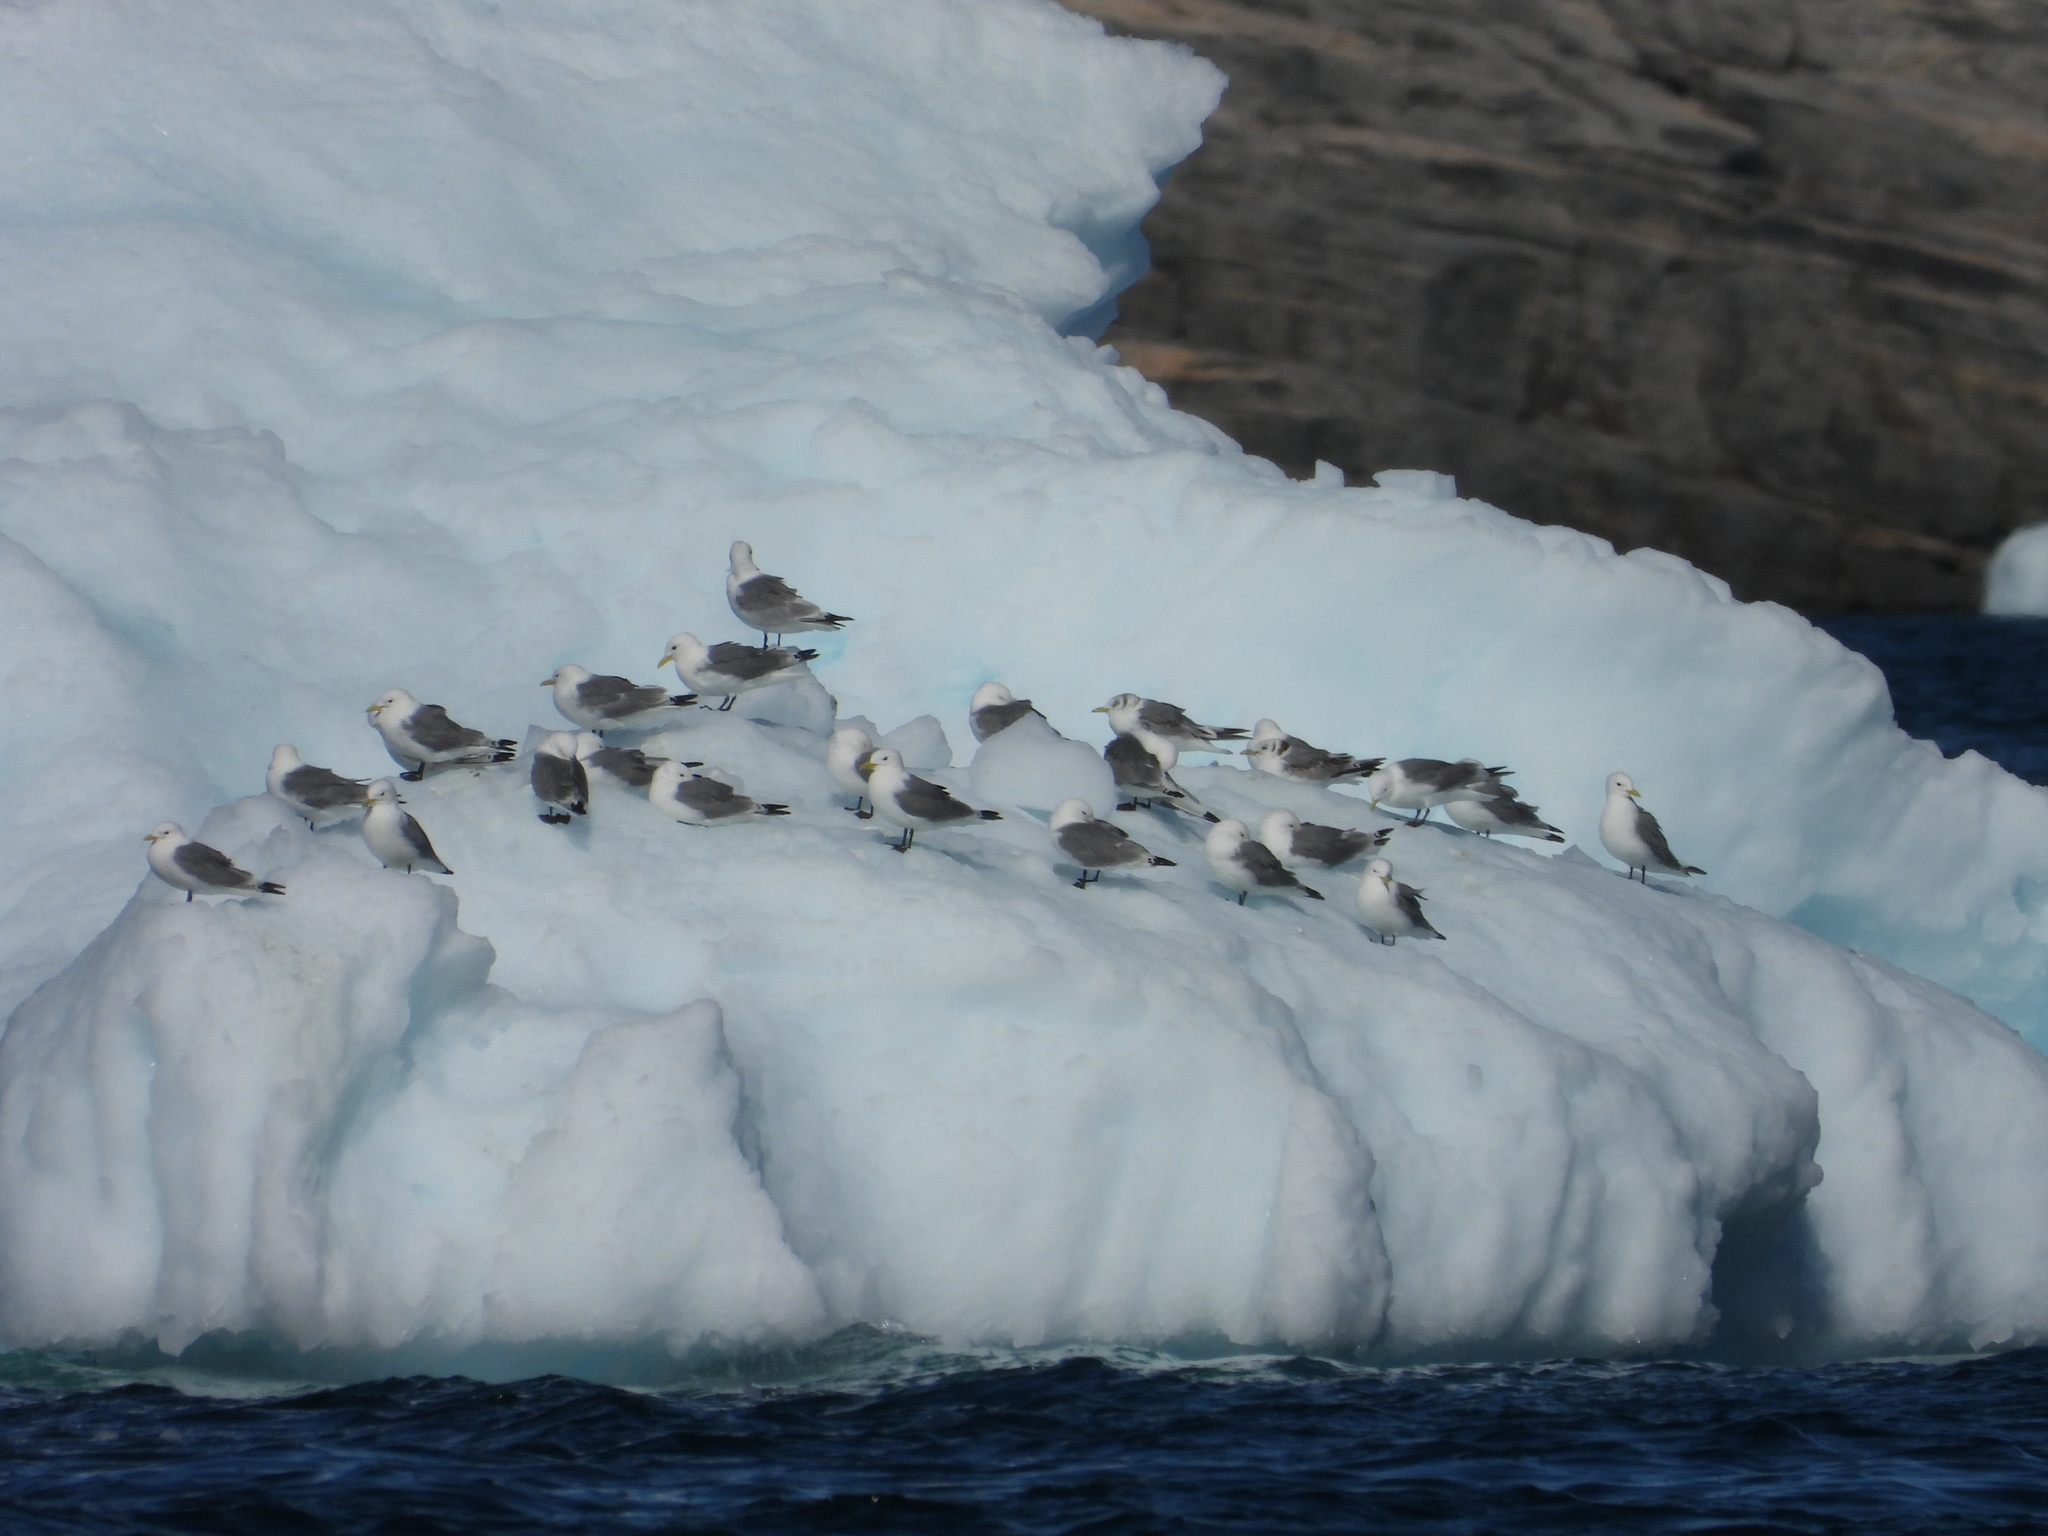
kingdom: Animalia
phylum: Chordata
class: Aves
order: Charadriiformes
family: Laridae
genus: Rissa
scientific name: Rissa tridactyla
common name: Black-legged kittiwake
